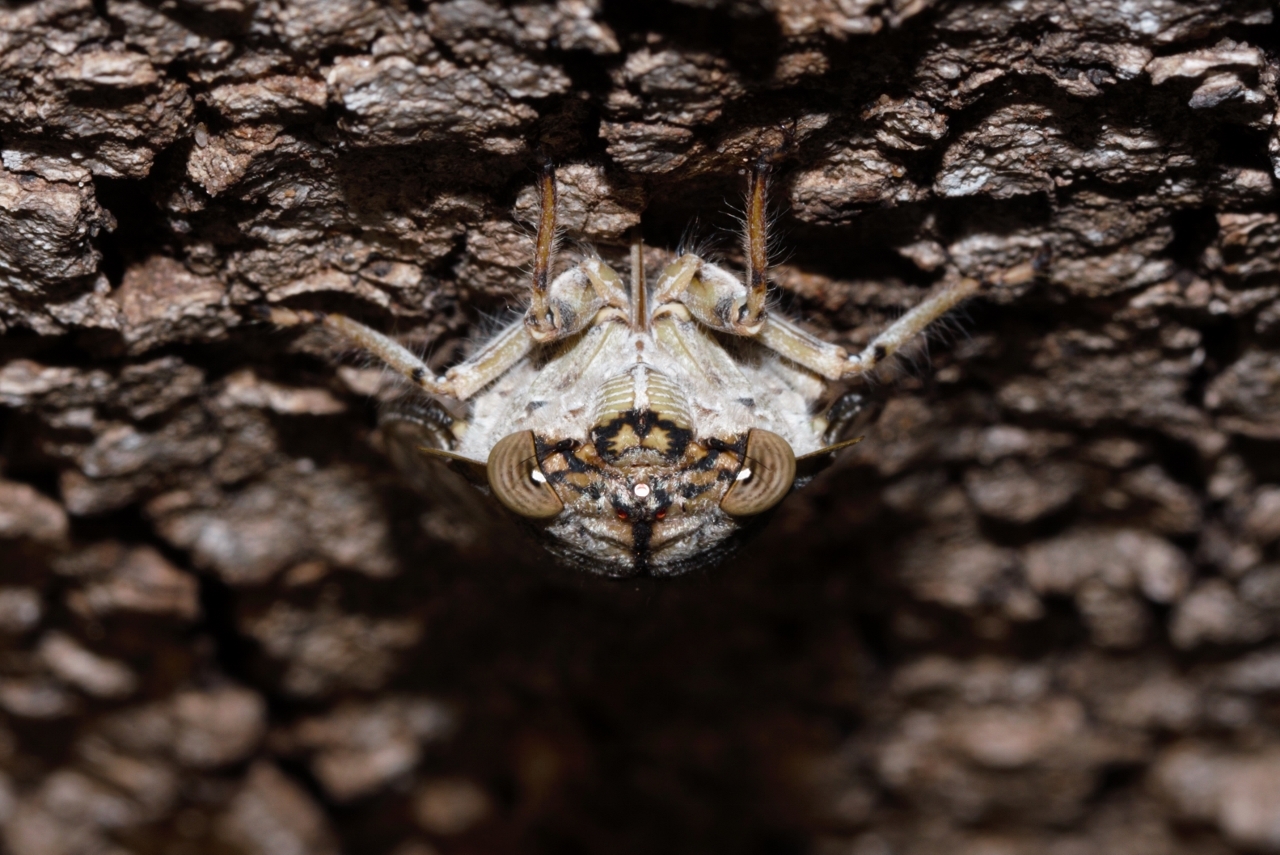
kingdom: Animalia
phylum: Arthropoda
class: Insecta
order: Hemiptera
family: Cicadidae
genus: Oxypleura
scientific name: Oxypleura lenihani
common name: Coastal sharpcollar cicada
